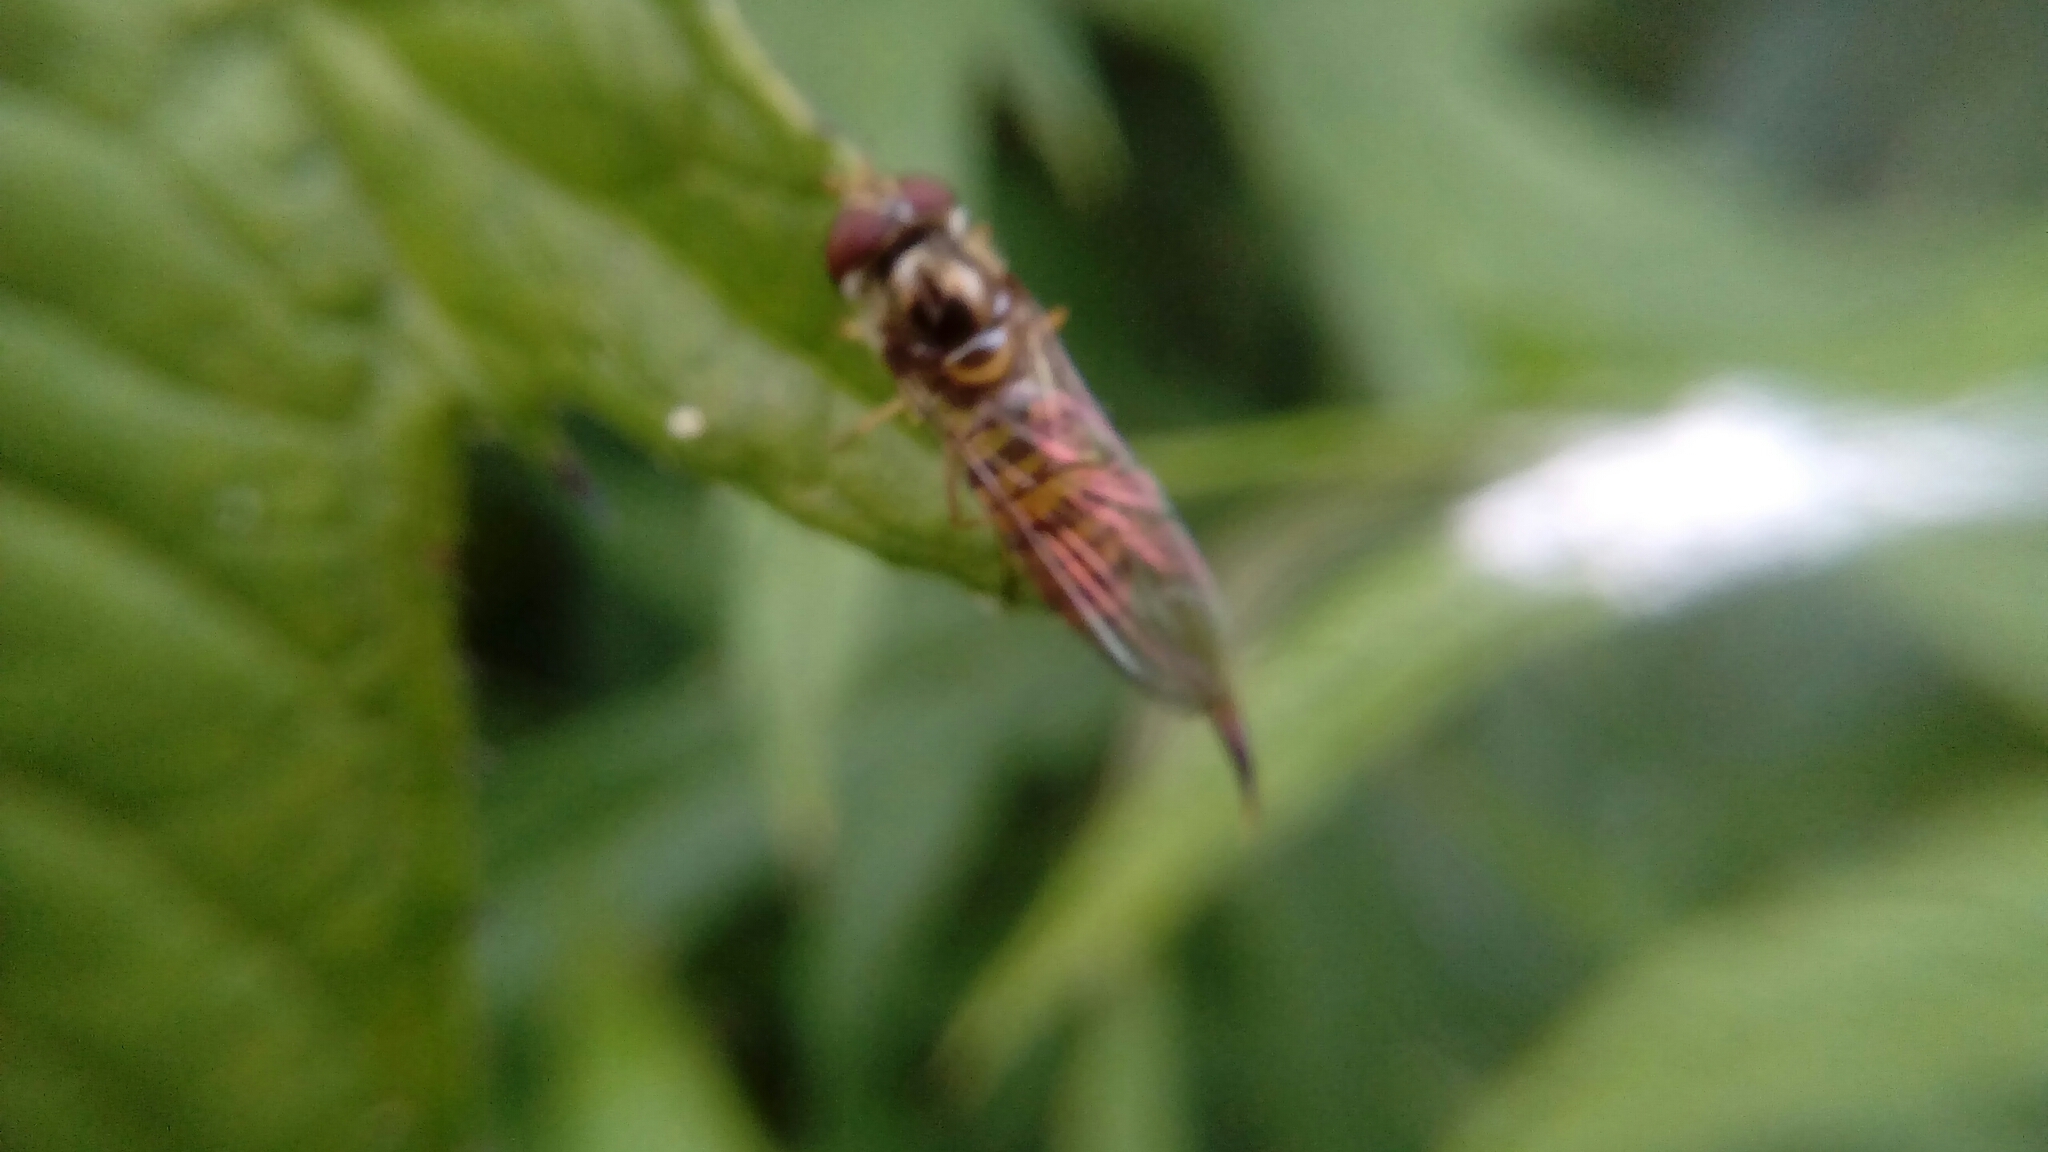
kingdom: Animalia
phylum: Arthropoda
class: Insecta
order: Diptera
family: Syrphidae
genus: Episyrphus
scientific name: Episyrphus balteatus
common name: Marmalade hoverfly
